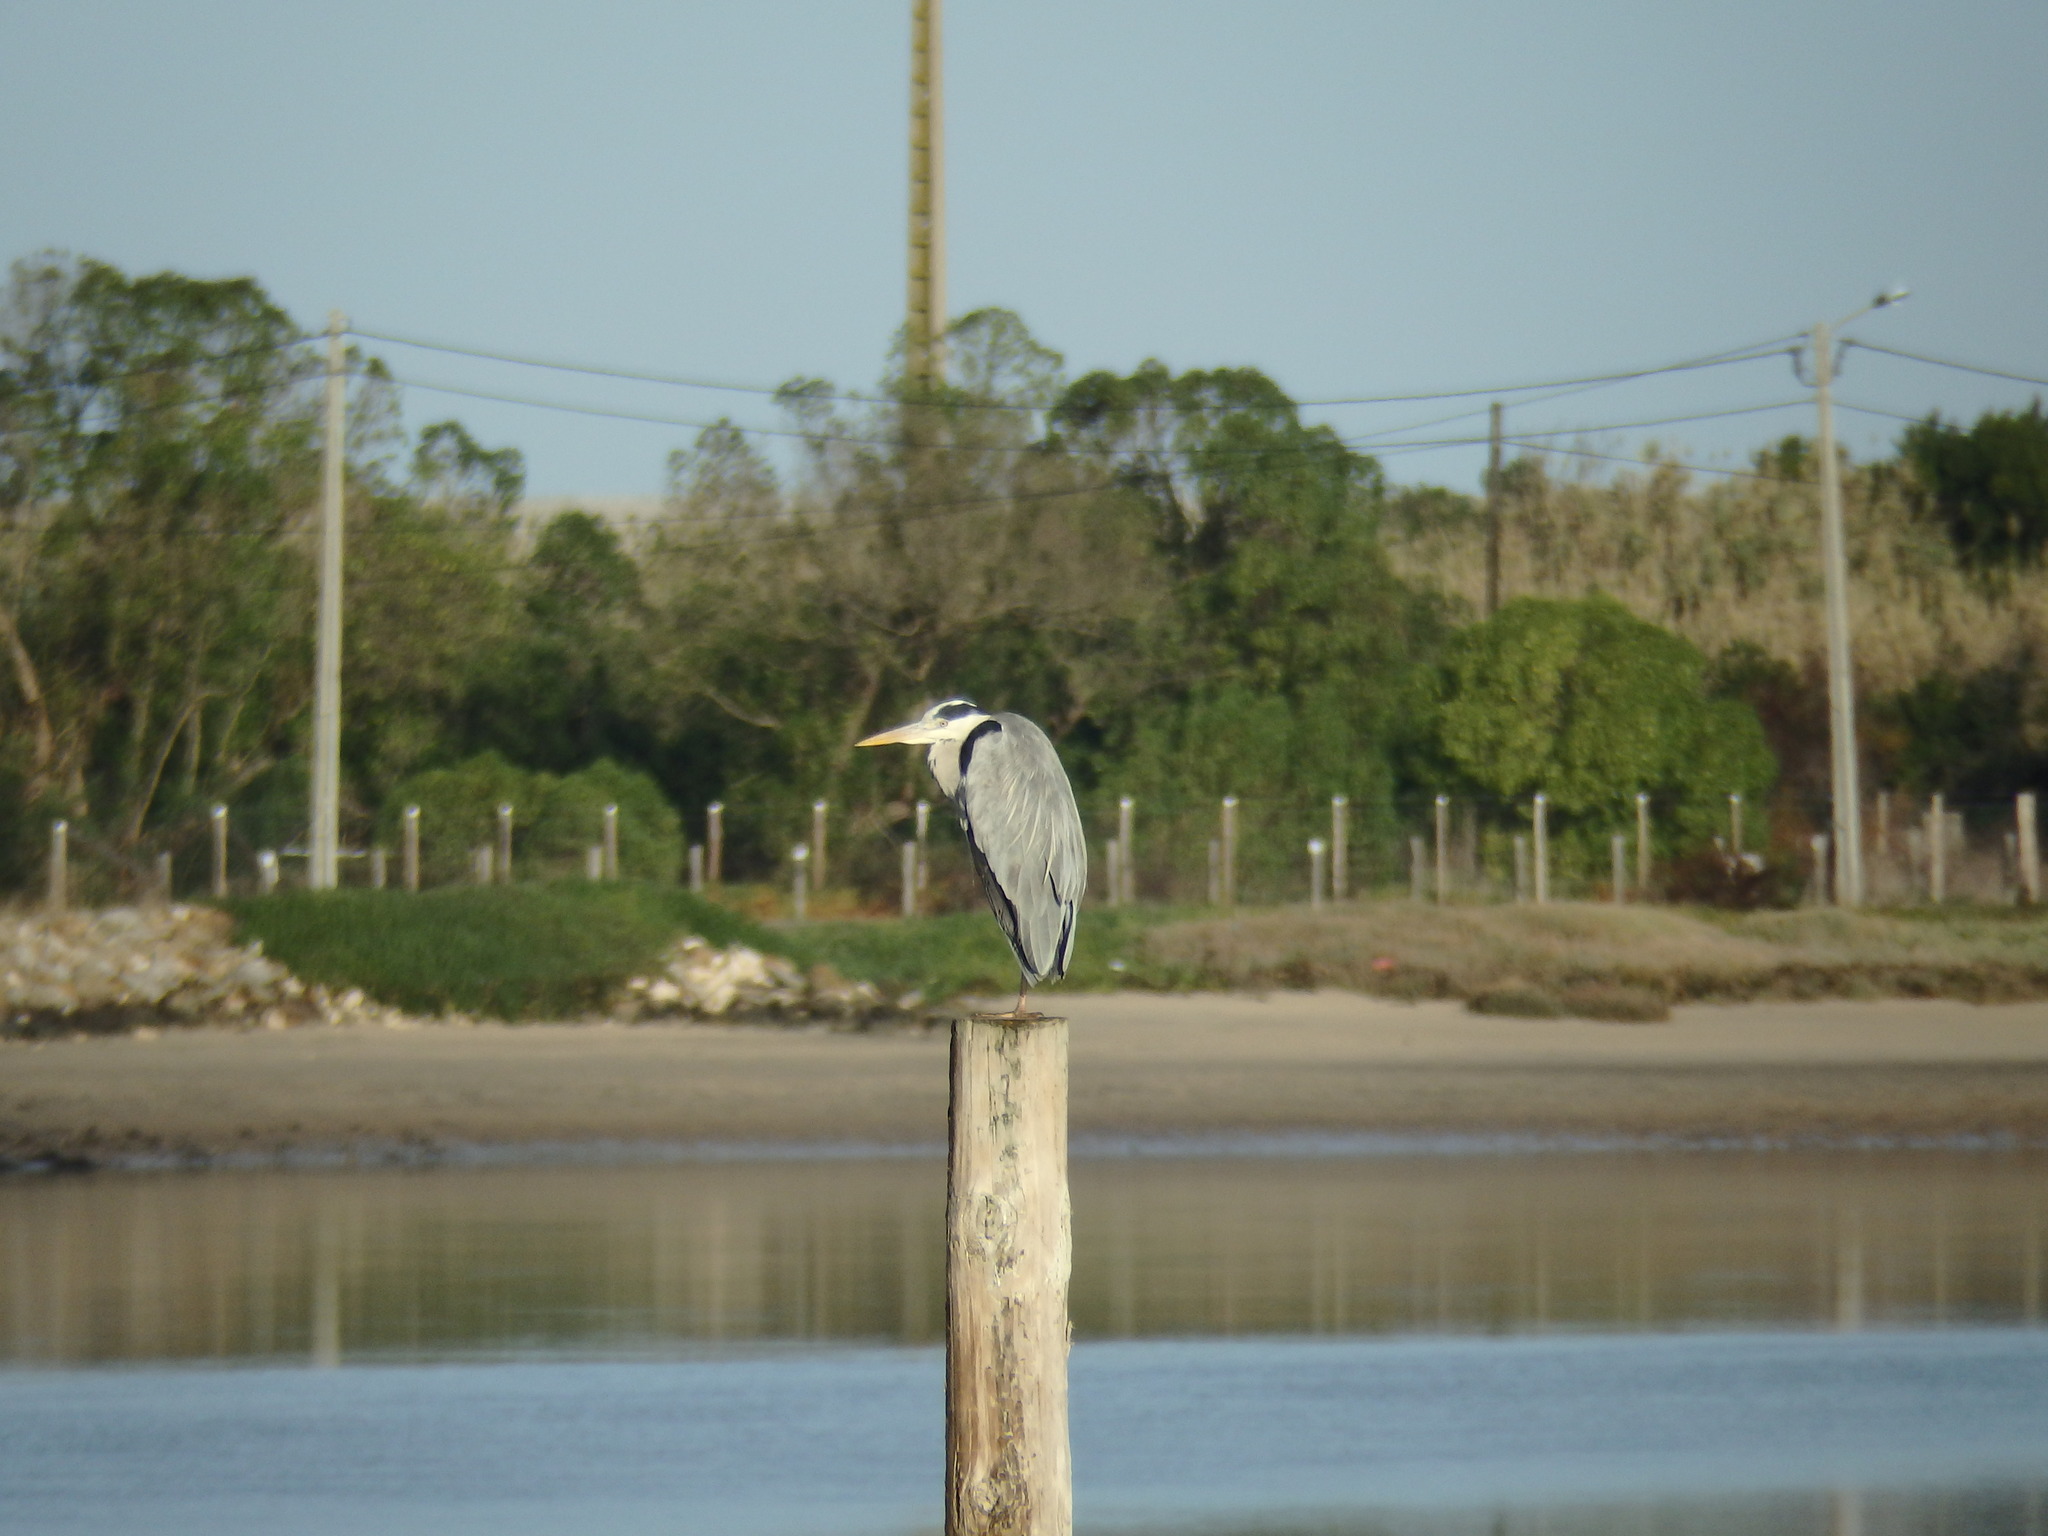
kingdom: Animalia
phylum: Chordata
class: Aves
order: Pelecaniformes
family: Ardeidae
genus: Ardea
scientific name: Ardea cinerea
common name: Grey heron
